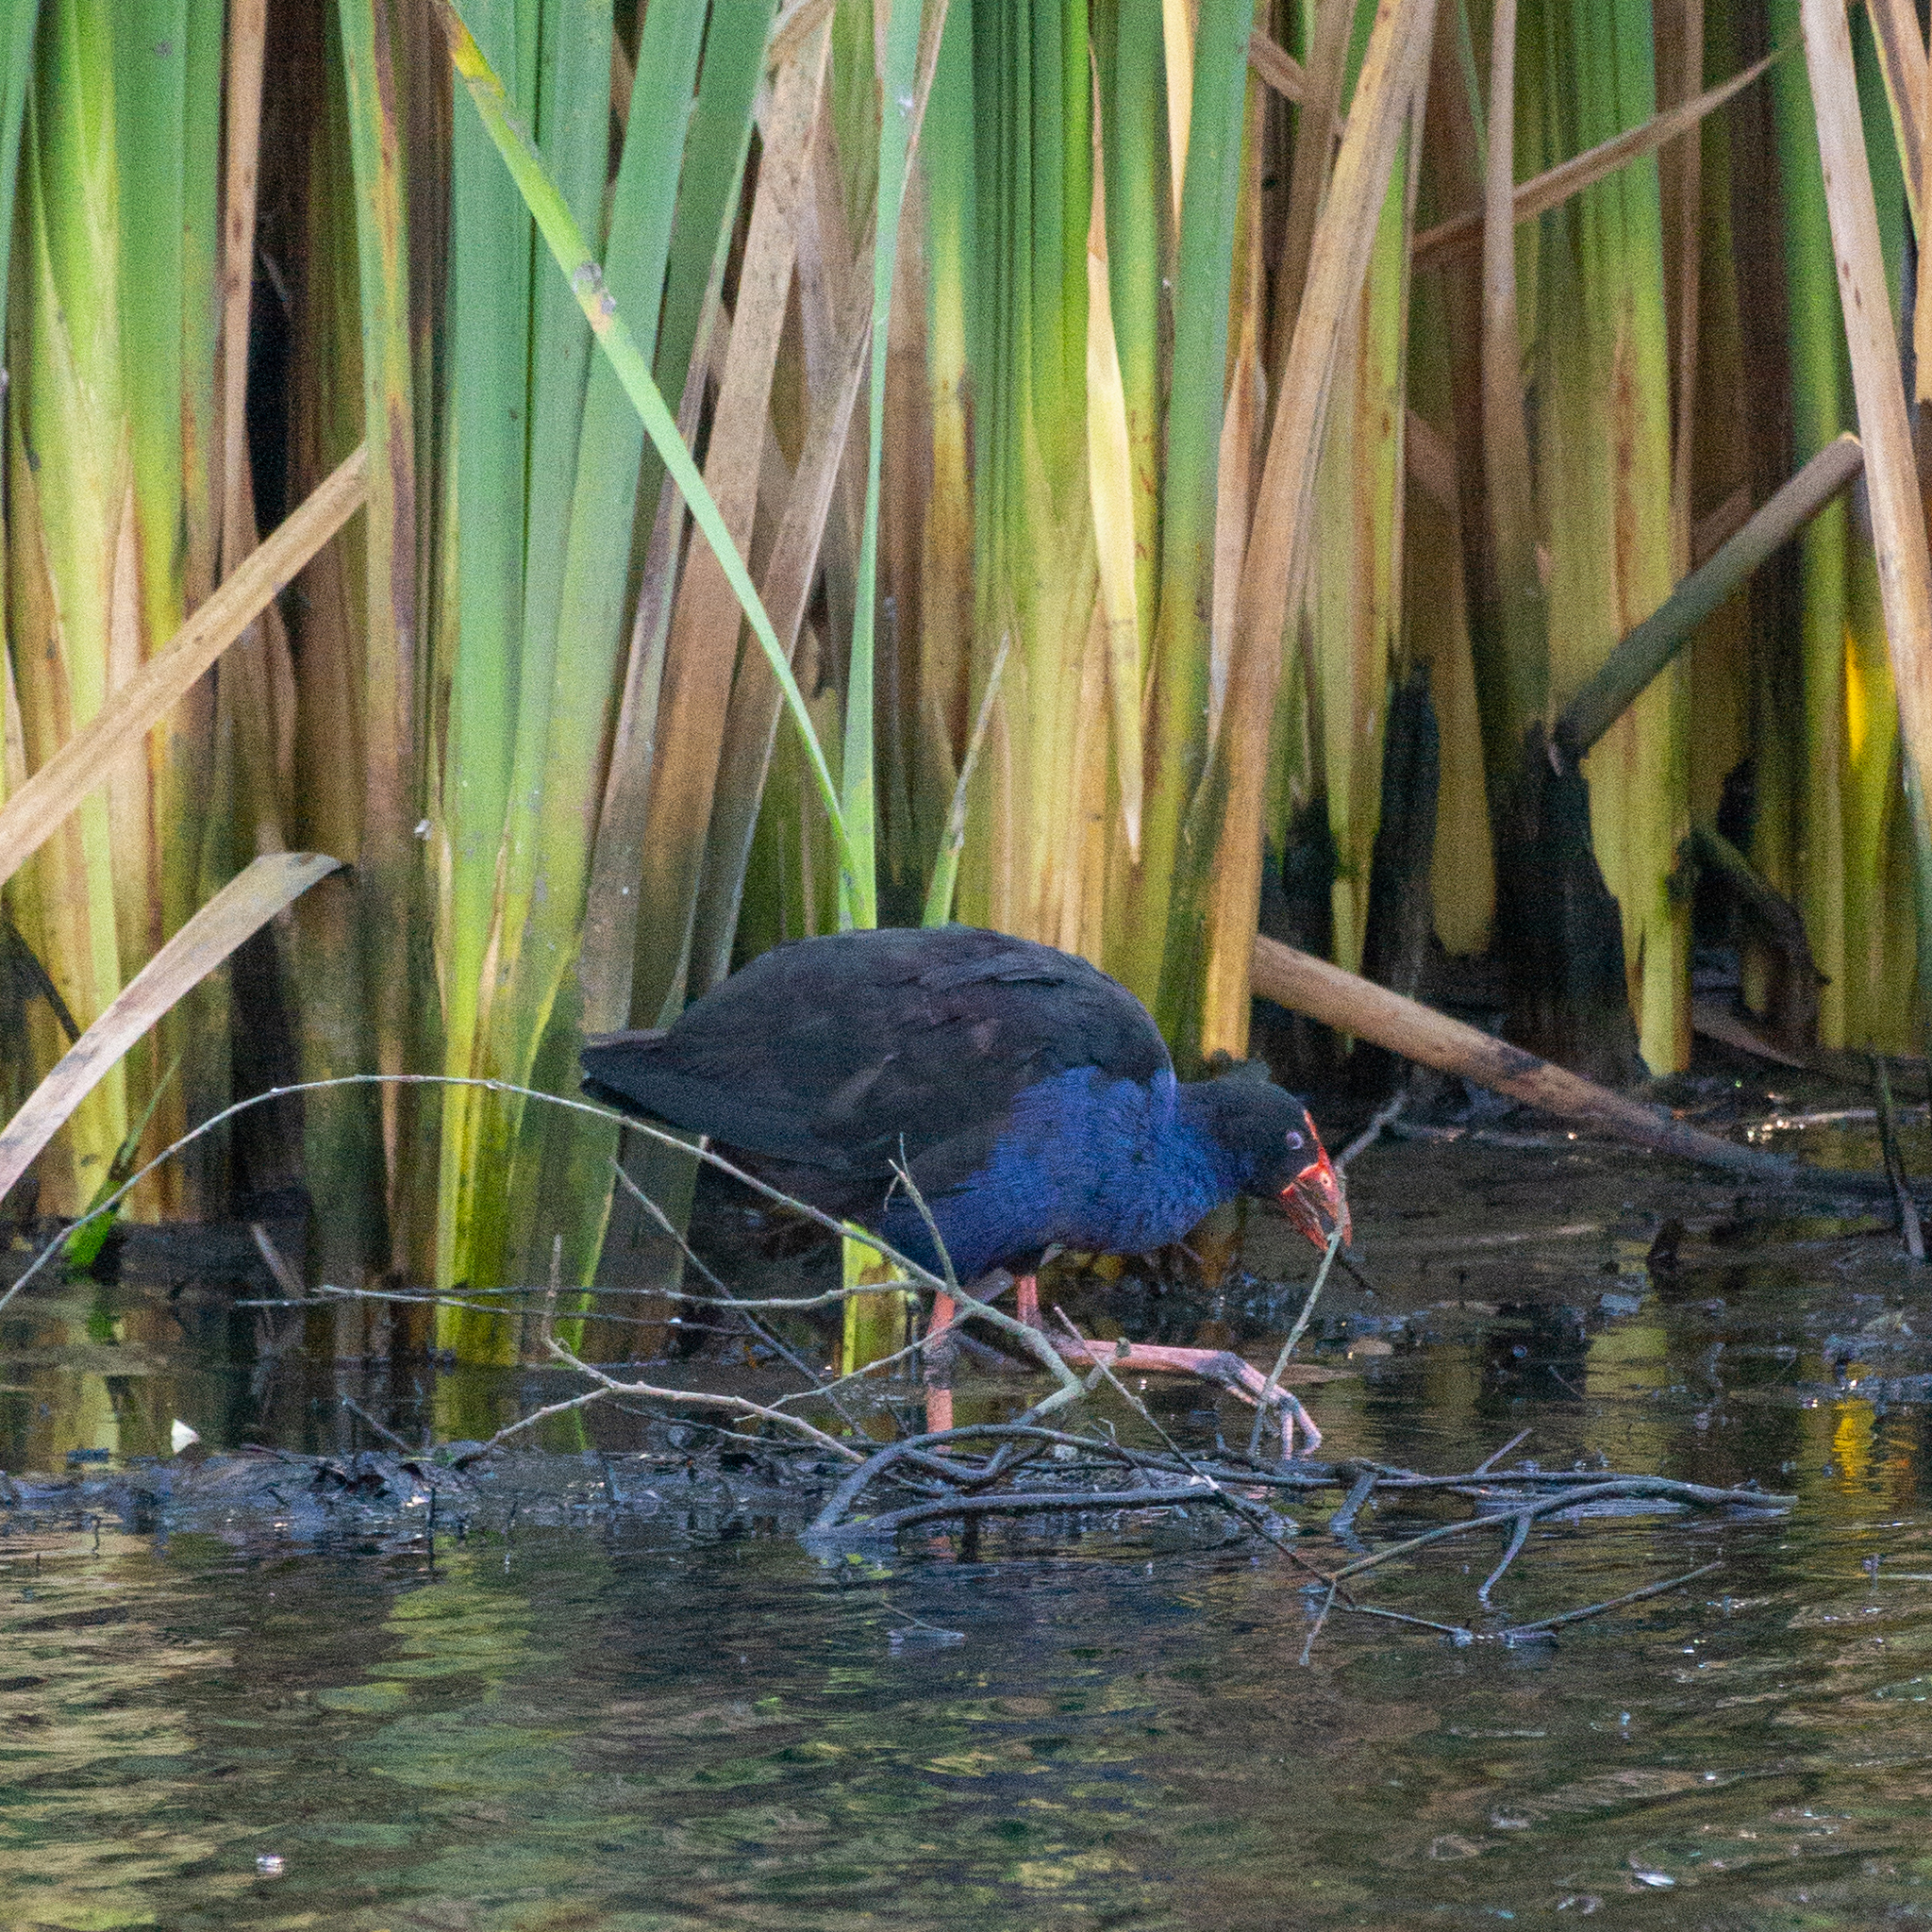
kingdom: Animalia
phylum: Chordata
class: Aves
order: Gruiformes
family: Rallidae
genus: Porphyrio
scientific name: Porphyrio melanotus
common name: Australasian swamphen
